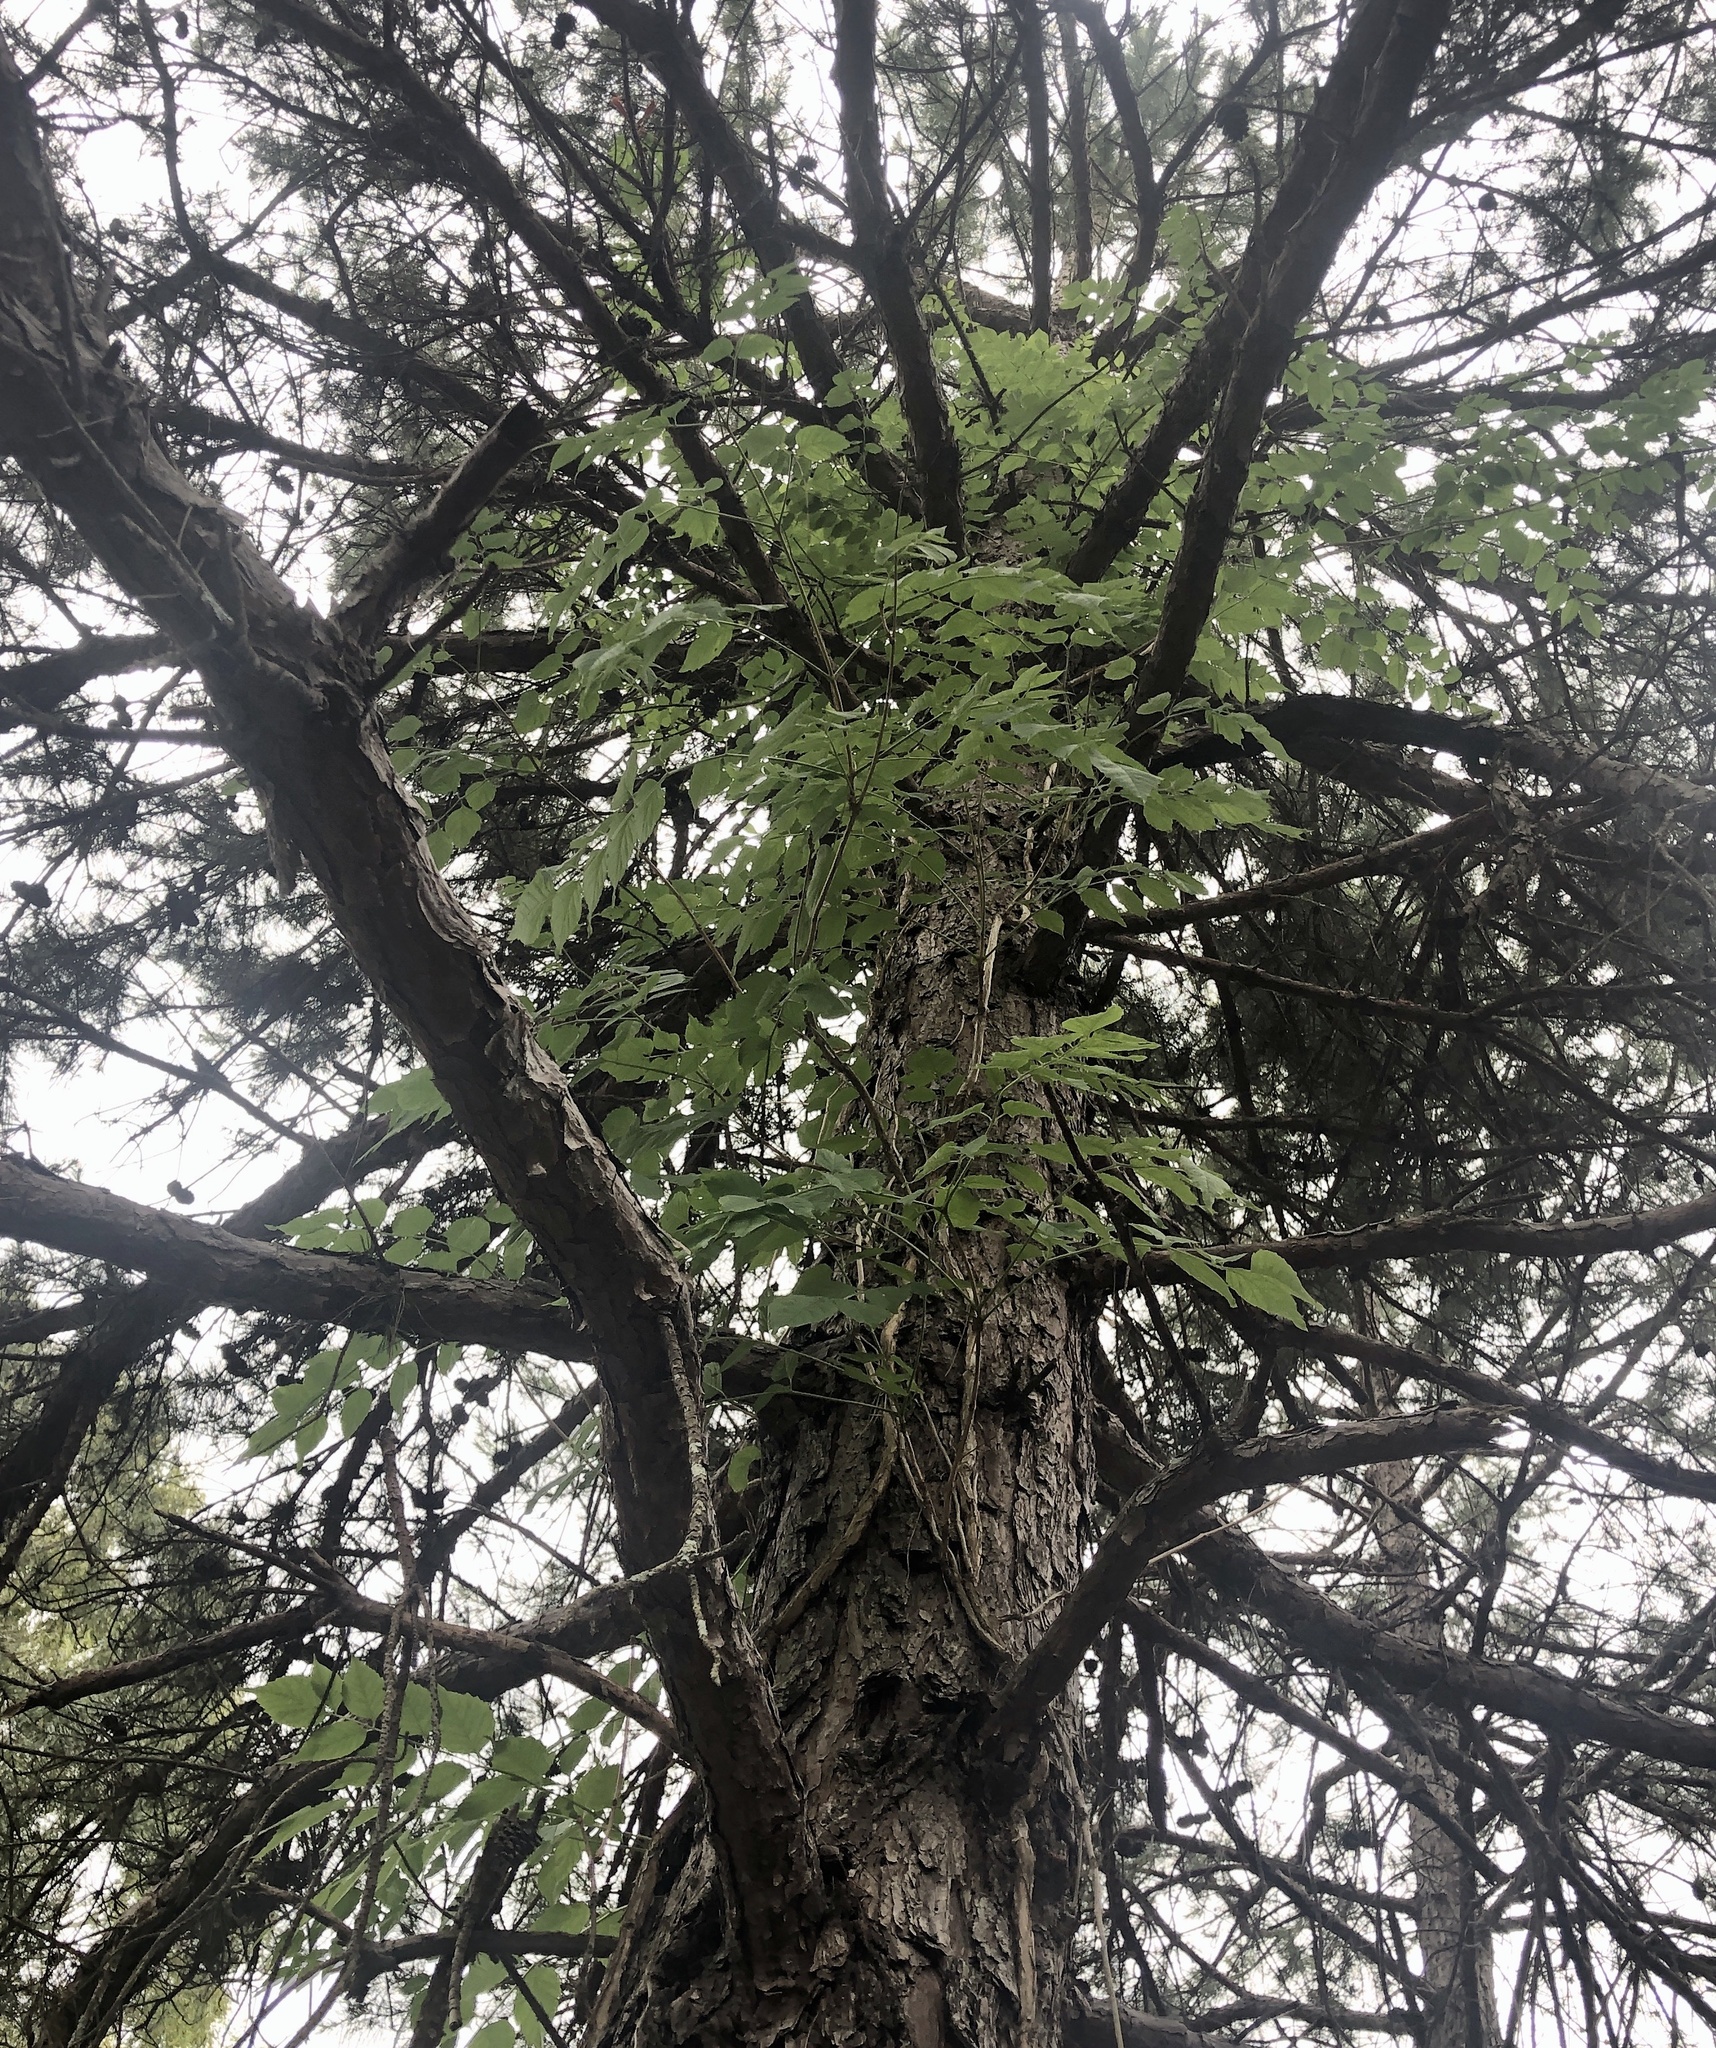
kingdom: Plantae
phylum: Tracheophyta
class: Magnoliopsida
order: Lamiales
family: Bignoniaceae
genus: Campsis
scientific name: Campsis radicans
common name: Trumpet-creeper
